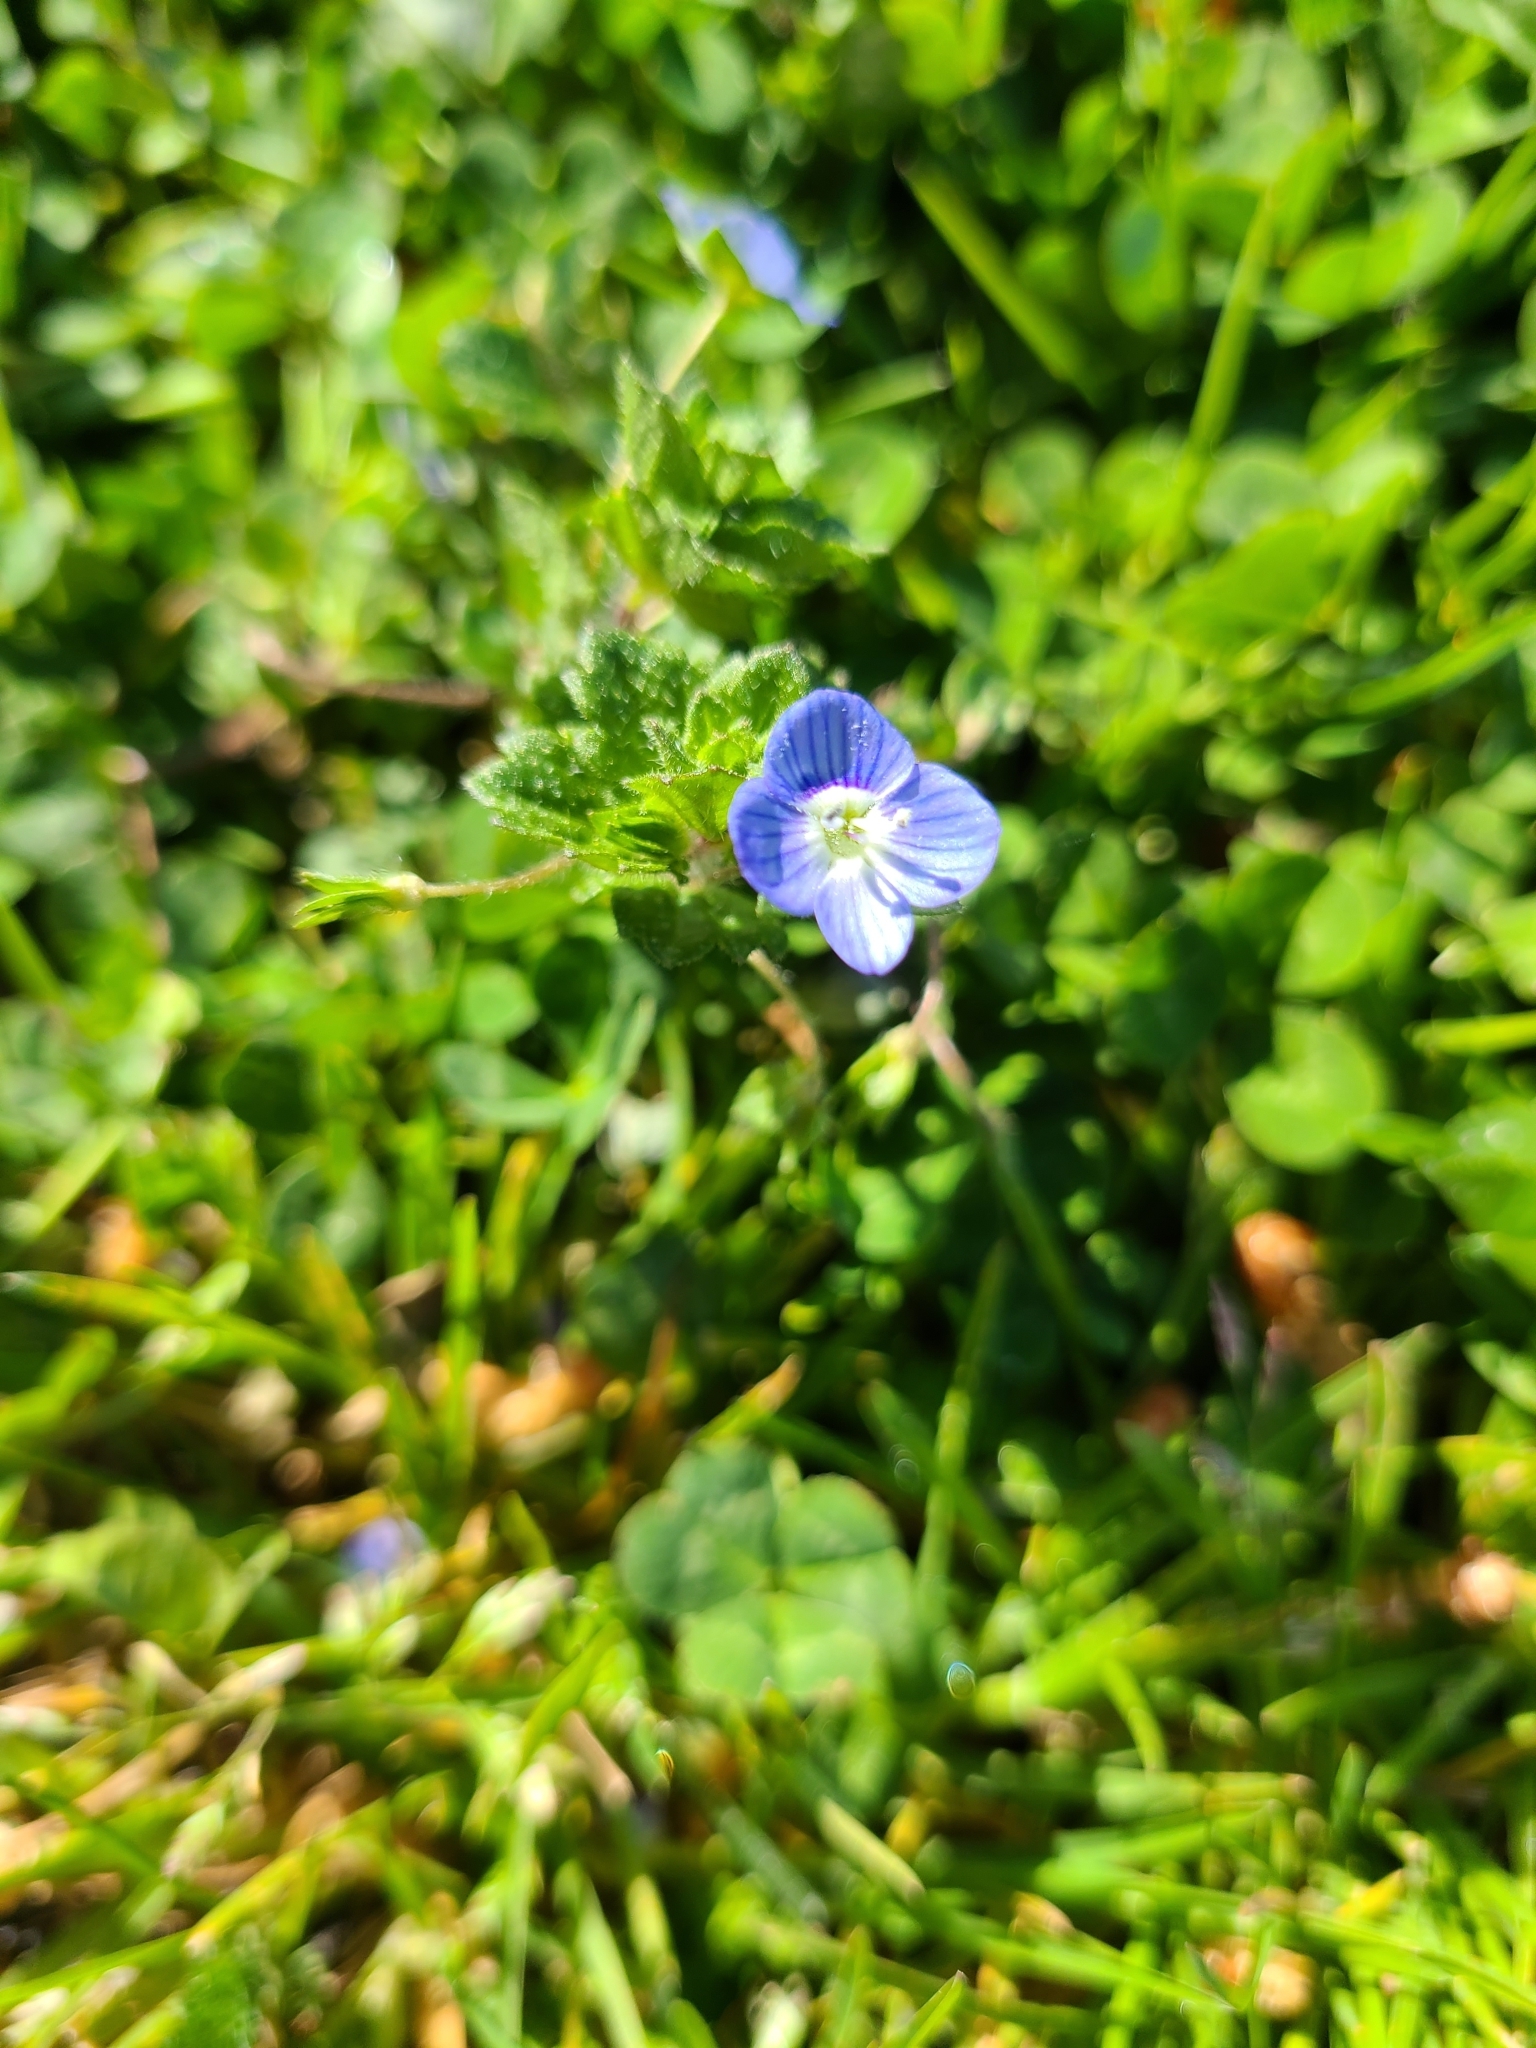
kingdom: Plantae
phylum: Tracheophyta
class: Magnoliopsida
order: Lamiales
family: Plantaginaceae
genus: Veronica
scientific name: Veronica persica
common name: Common field-speedwell
